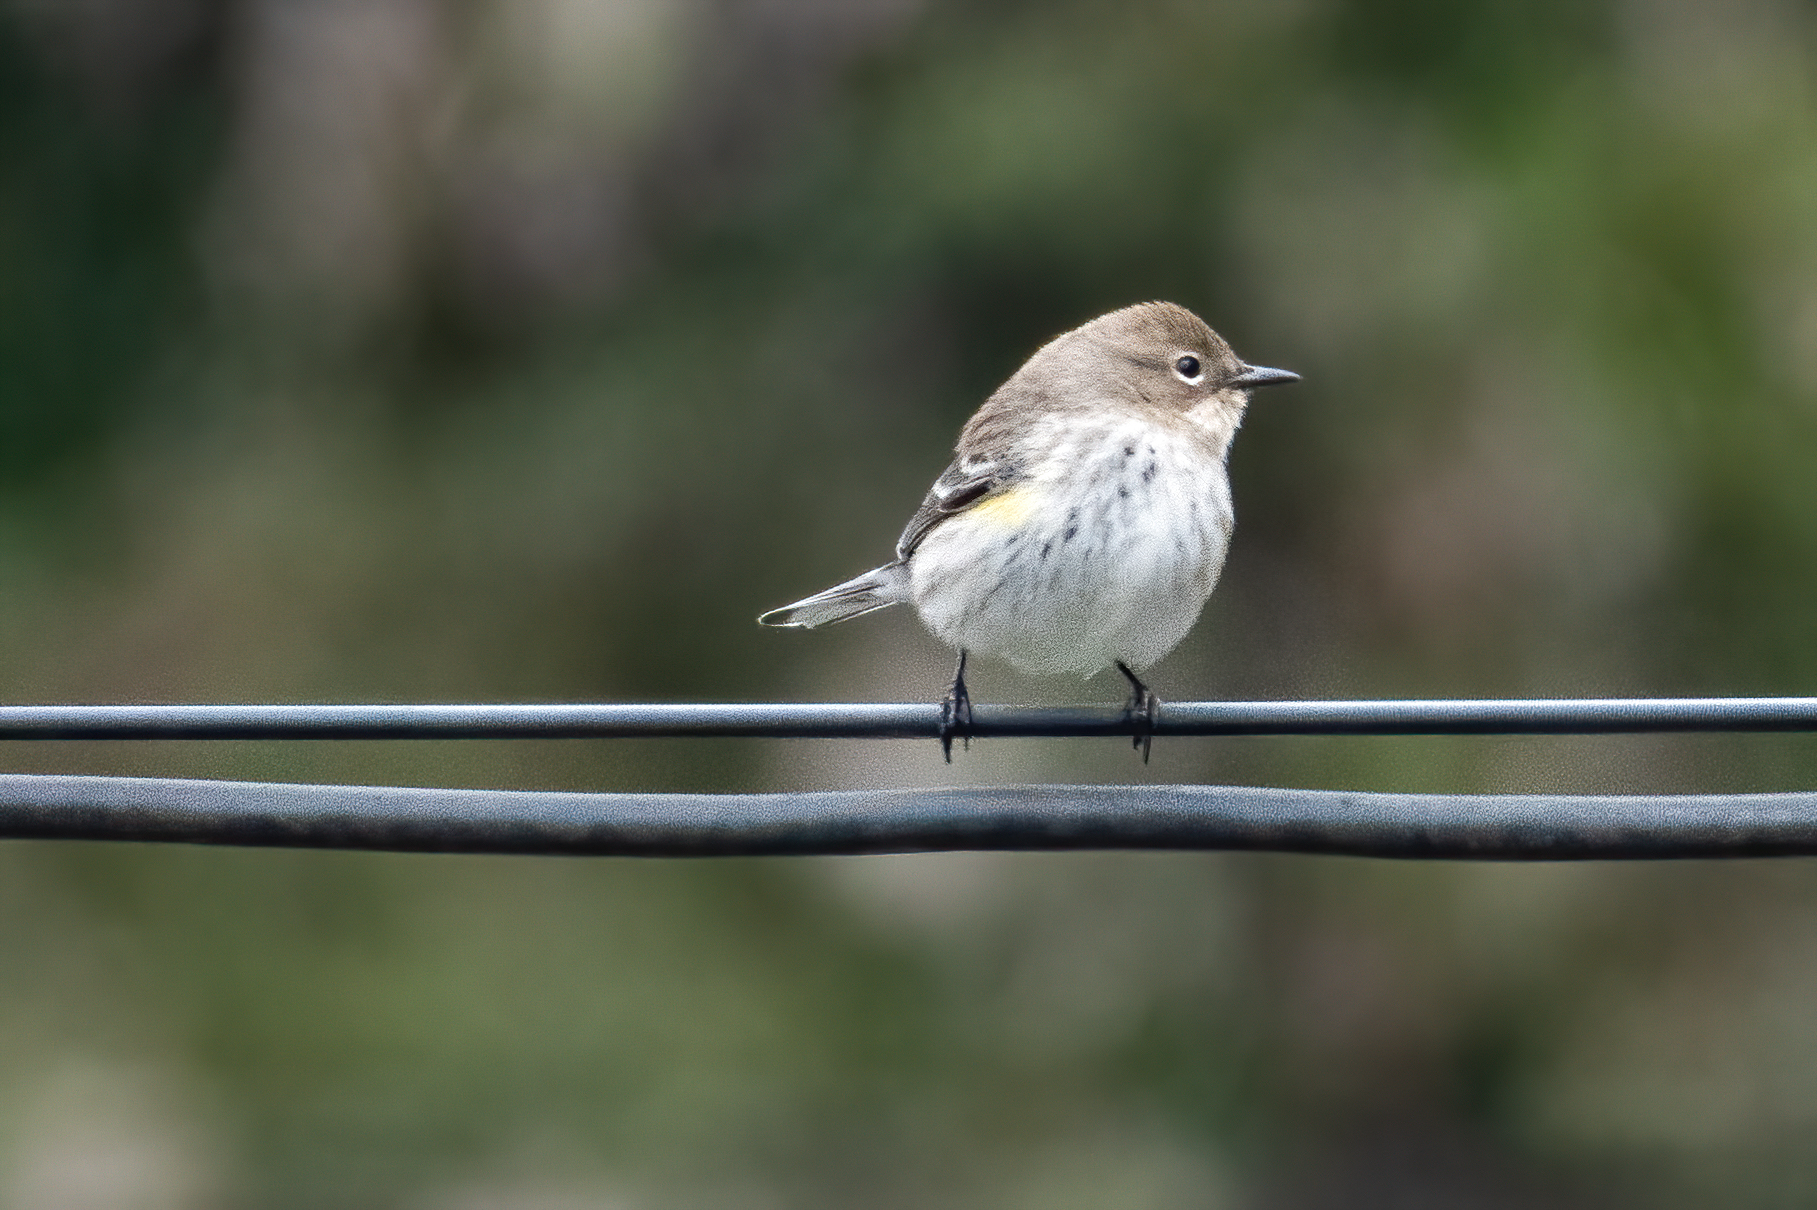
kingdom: Animalia
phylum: Chordata
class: Aves
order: Passeriformes
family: Parulidae
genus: Setophaga
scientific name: Setophaga coronata
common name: Myrtle warbler
